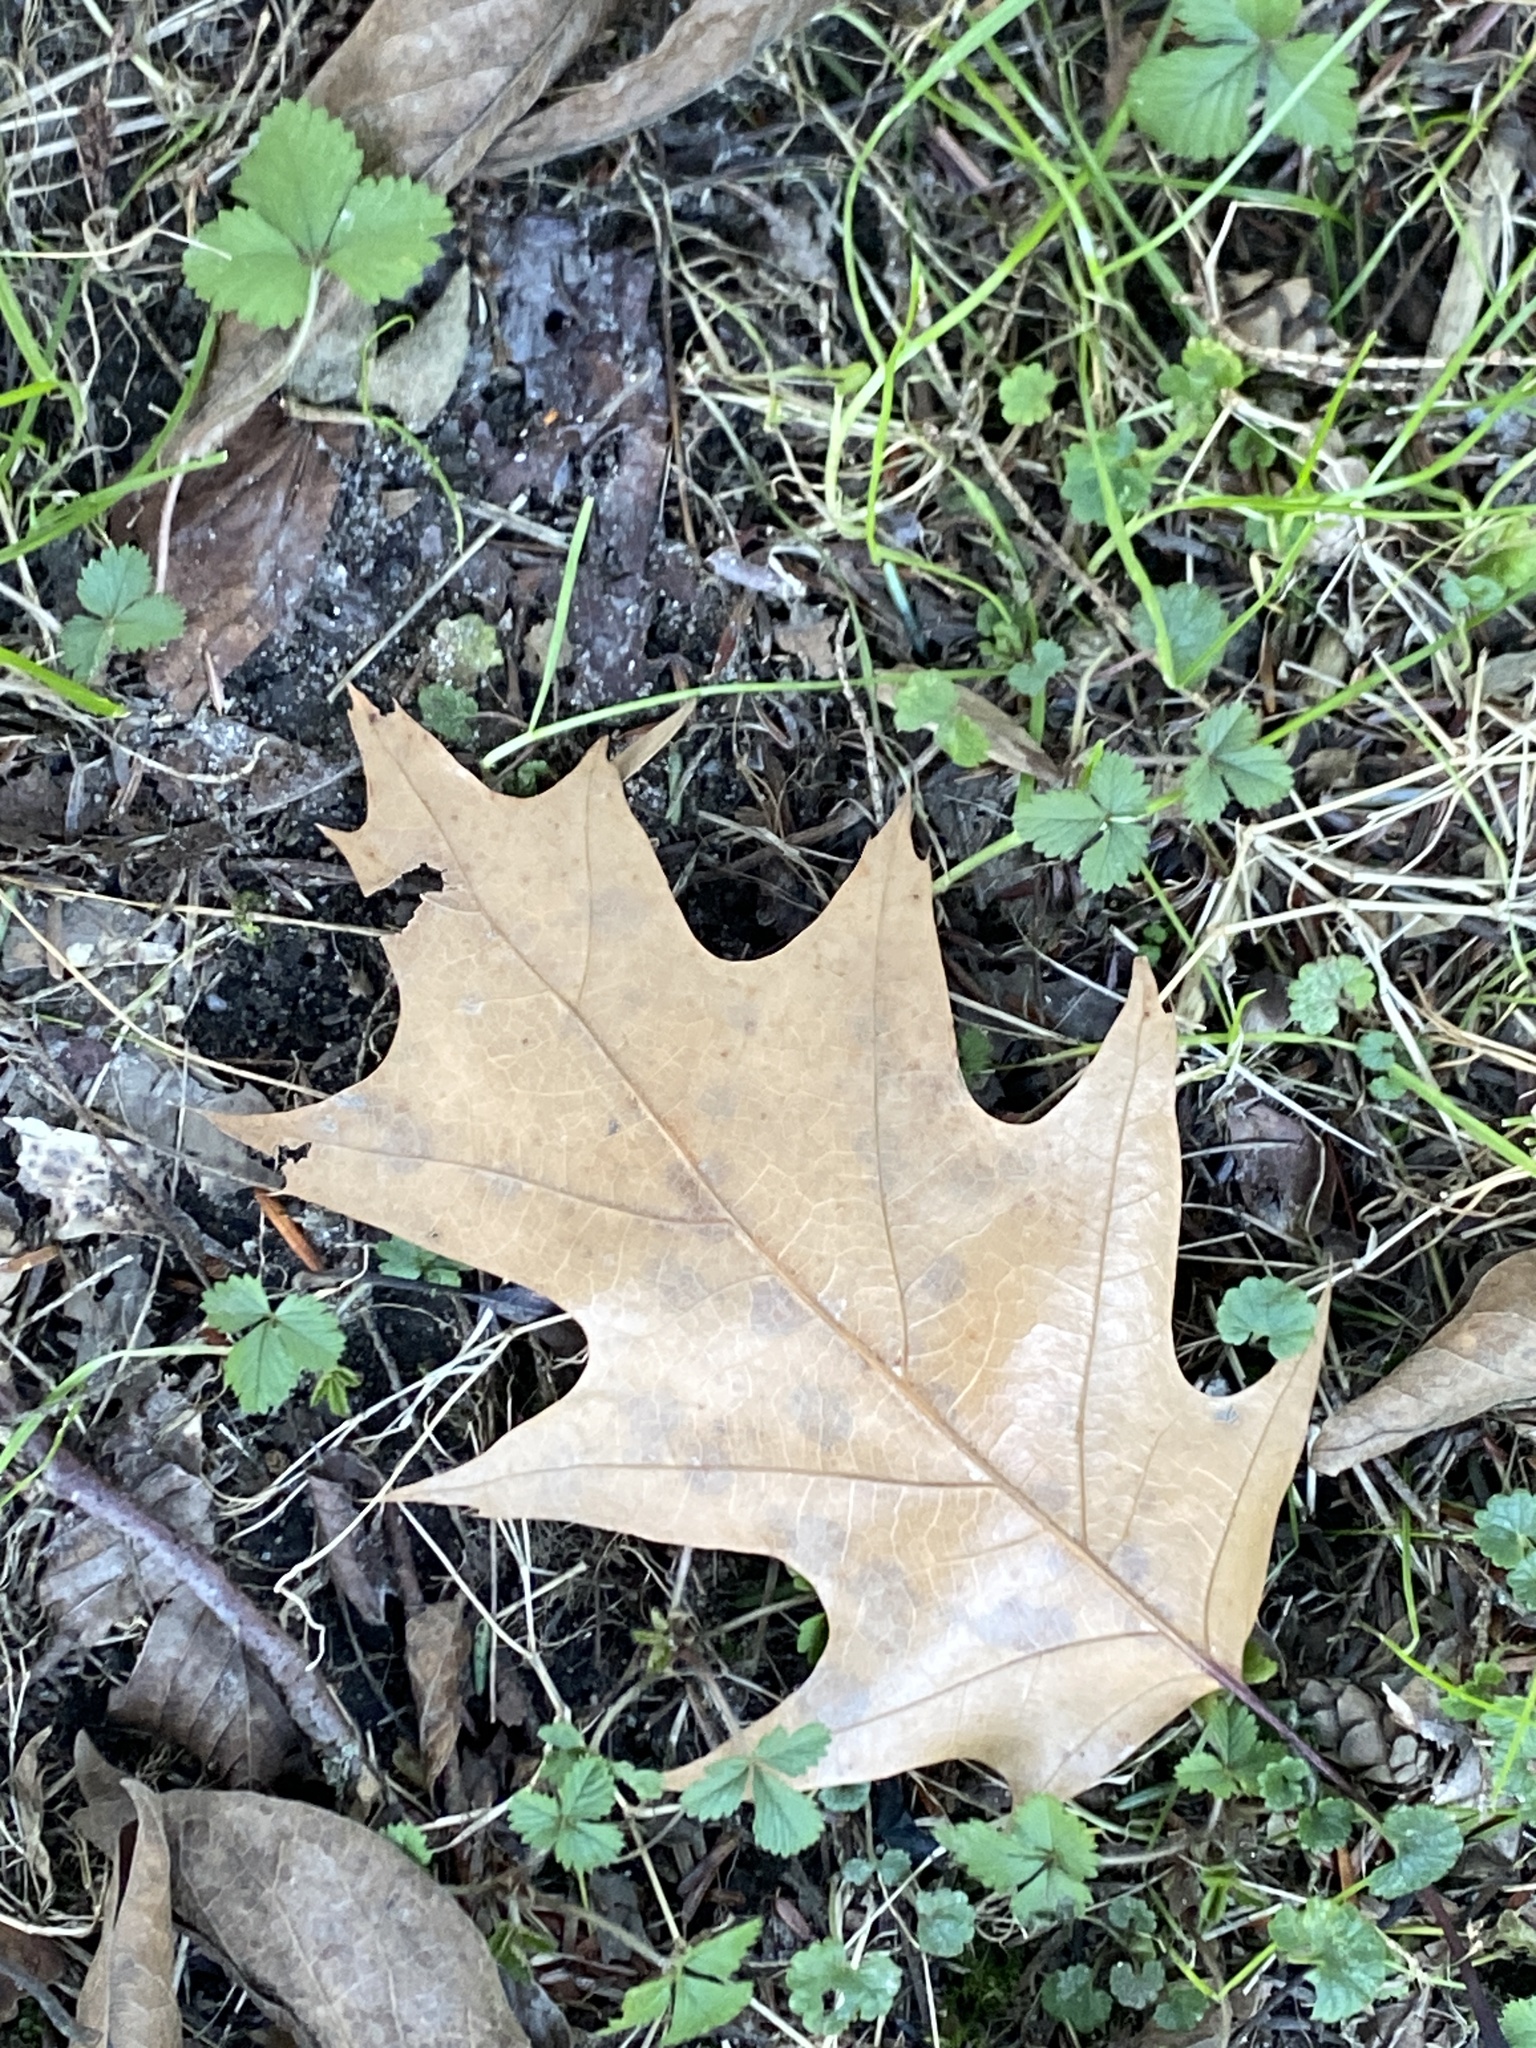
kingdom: Plantae
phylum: Tracheophyta
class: Magnoliopsida
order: Fagales
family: Fagaceae
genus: Quercus
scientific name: Quercus rubra
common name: Red oak
